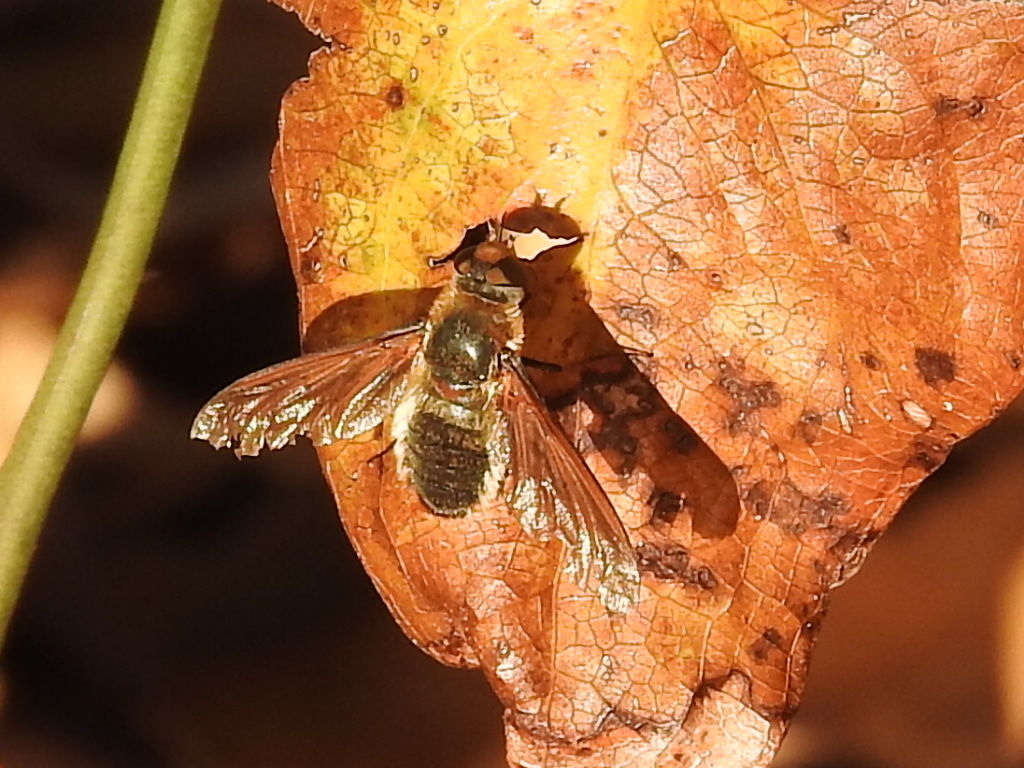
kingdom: Animalia
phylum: Arthropoda
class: Insecta
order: Diptera
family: Bombyliidae
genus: Poecilanthrax
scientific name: Poecilanthrax lucifer
